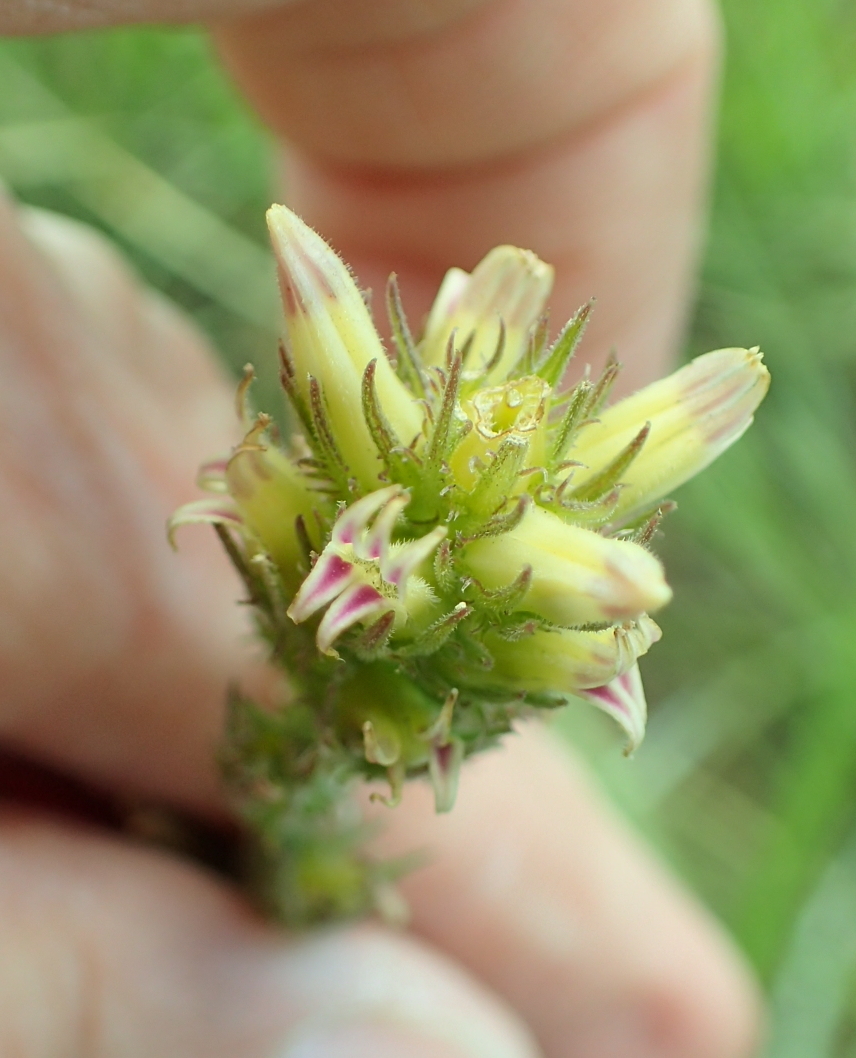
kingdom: Plantae
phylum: Tracheophyta
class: Magnoliopsida
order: Asterales
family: Campanulaceae
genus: Cyphia
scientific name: Cyphia elata
